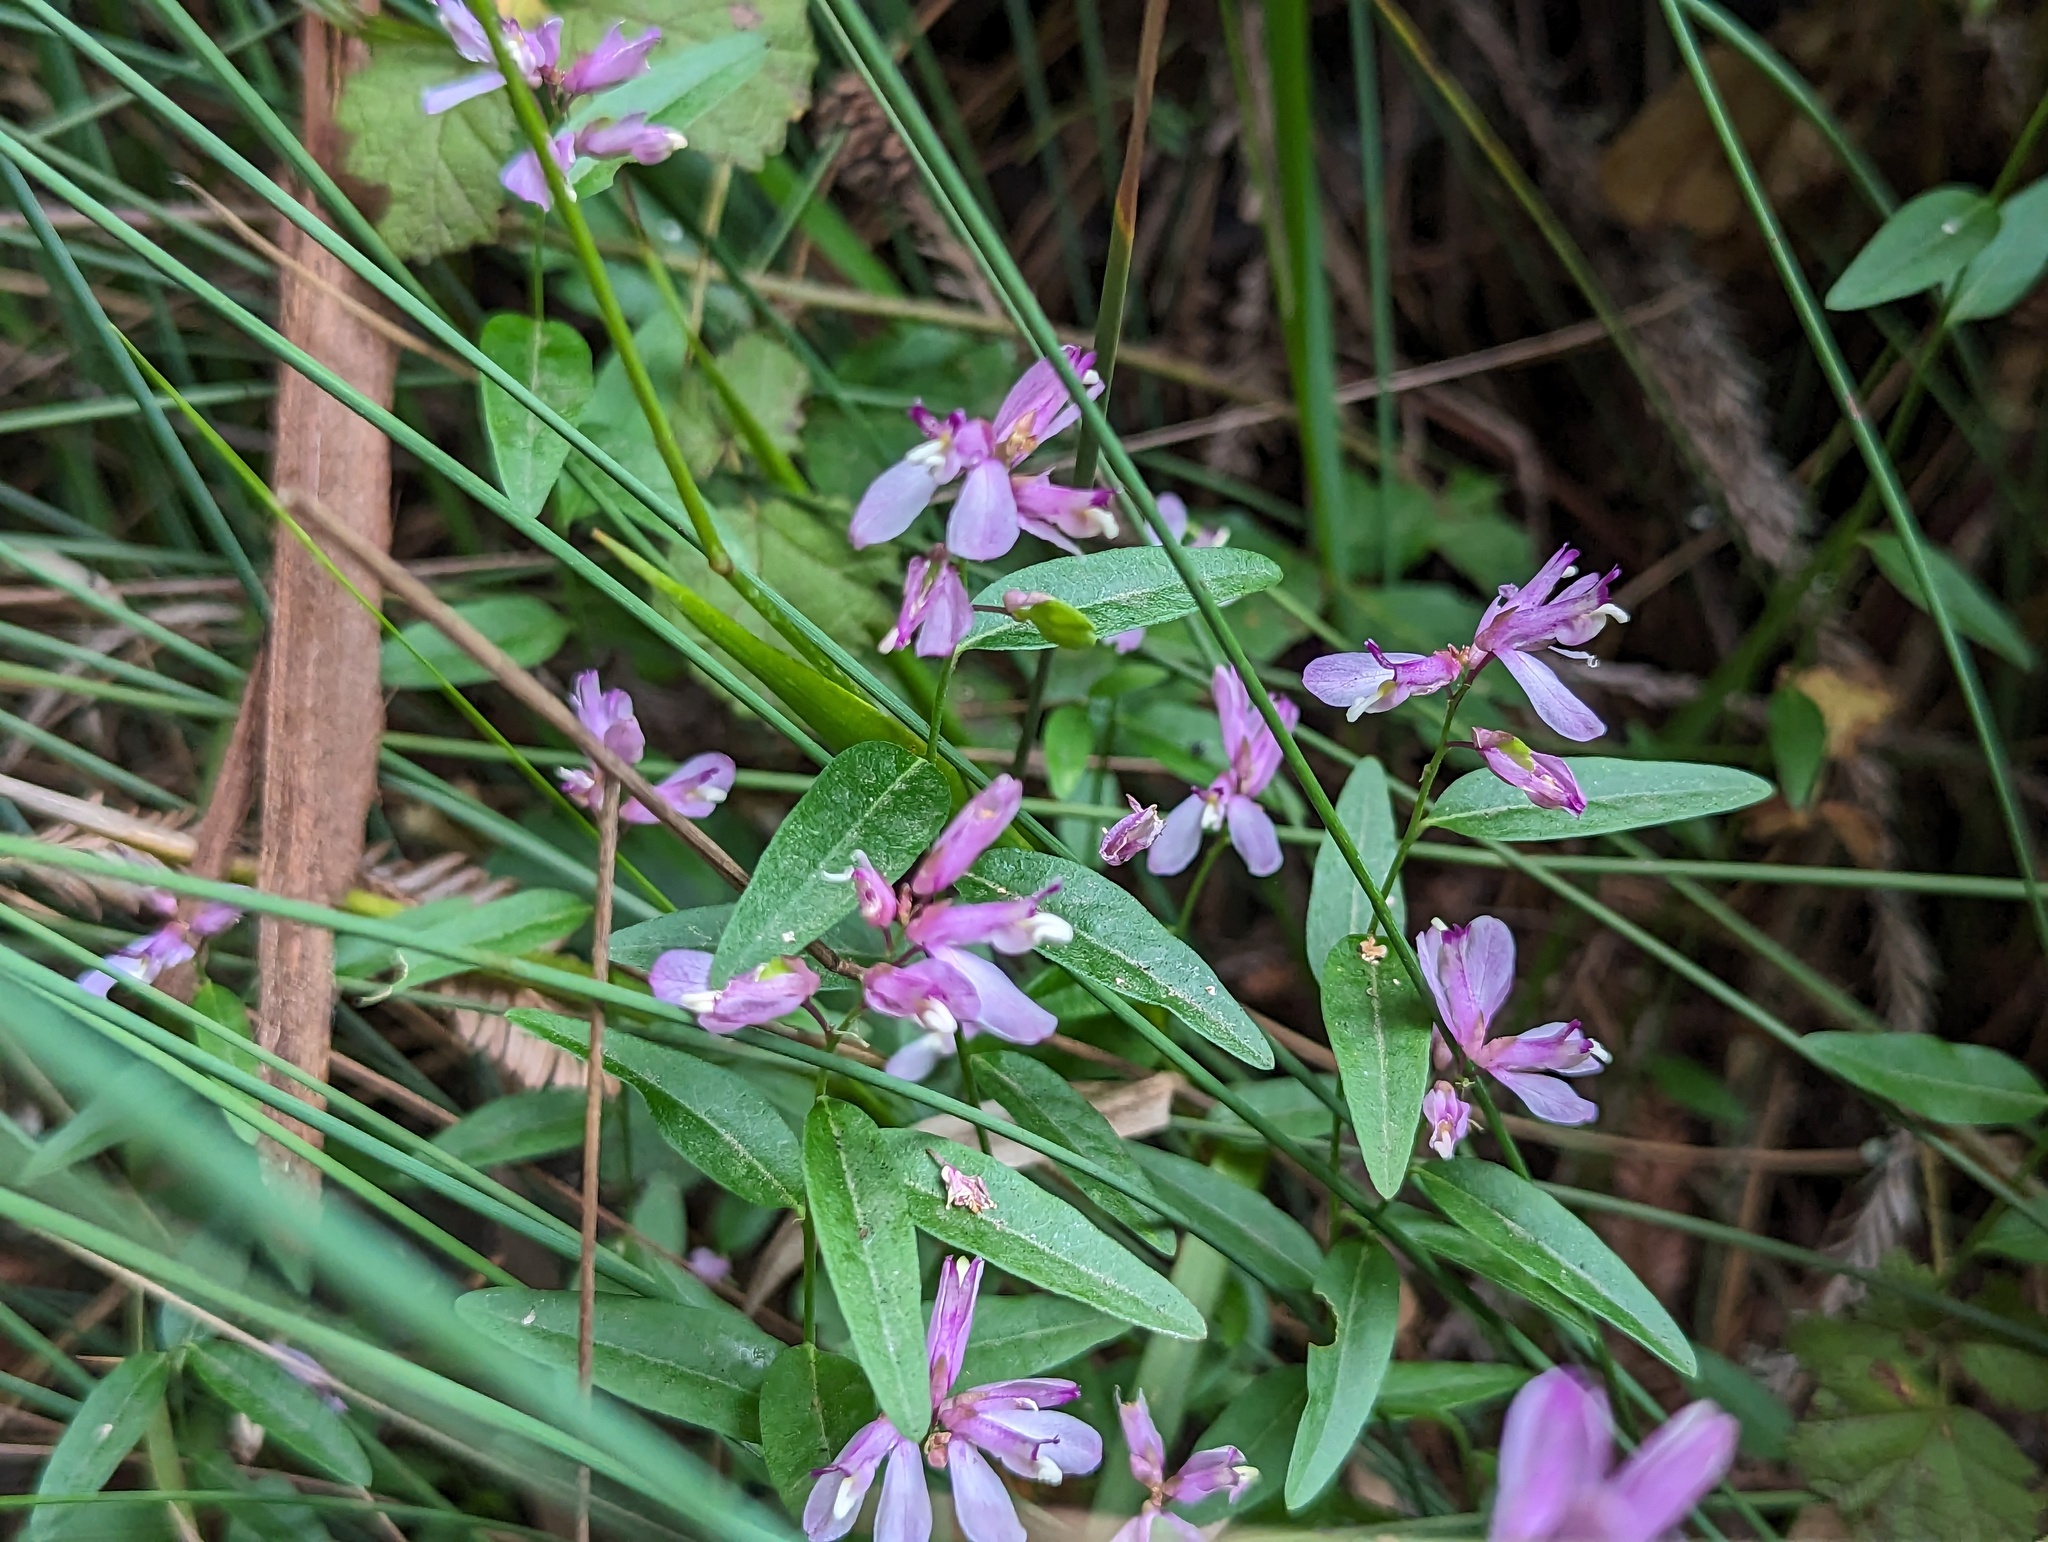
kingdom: Plantae
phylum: Tracheophyta
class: Magnoliopsida
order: Fabales
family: Polygalaceae
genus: Rhinotropis
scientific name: Rhinotropis californica
